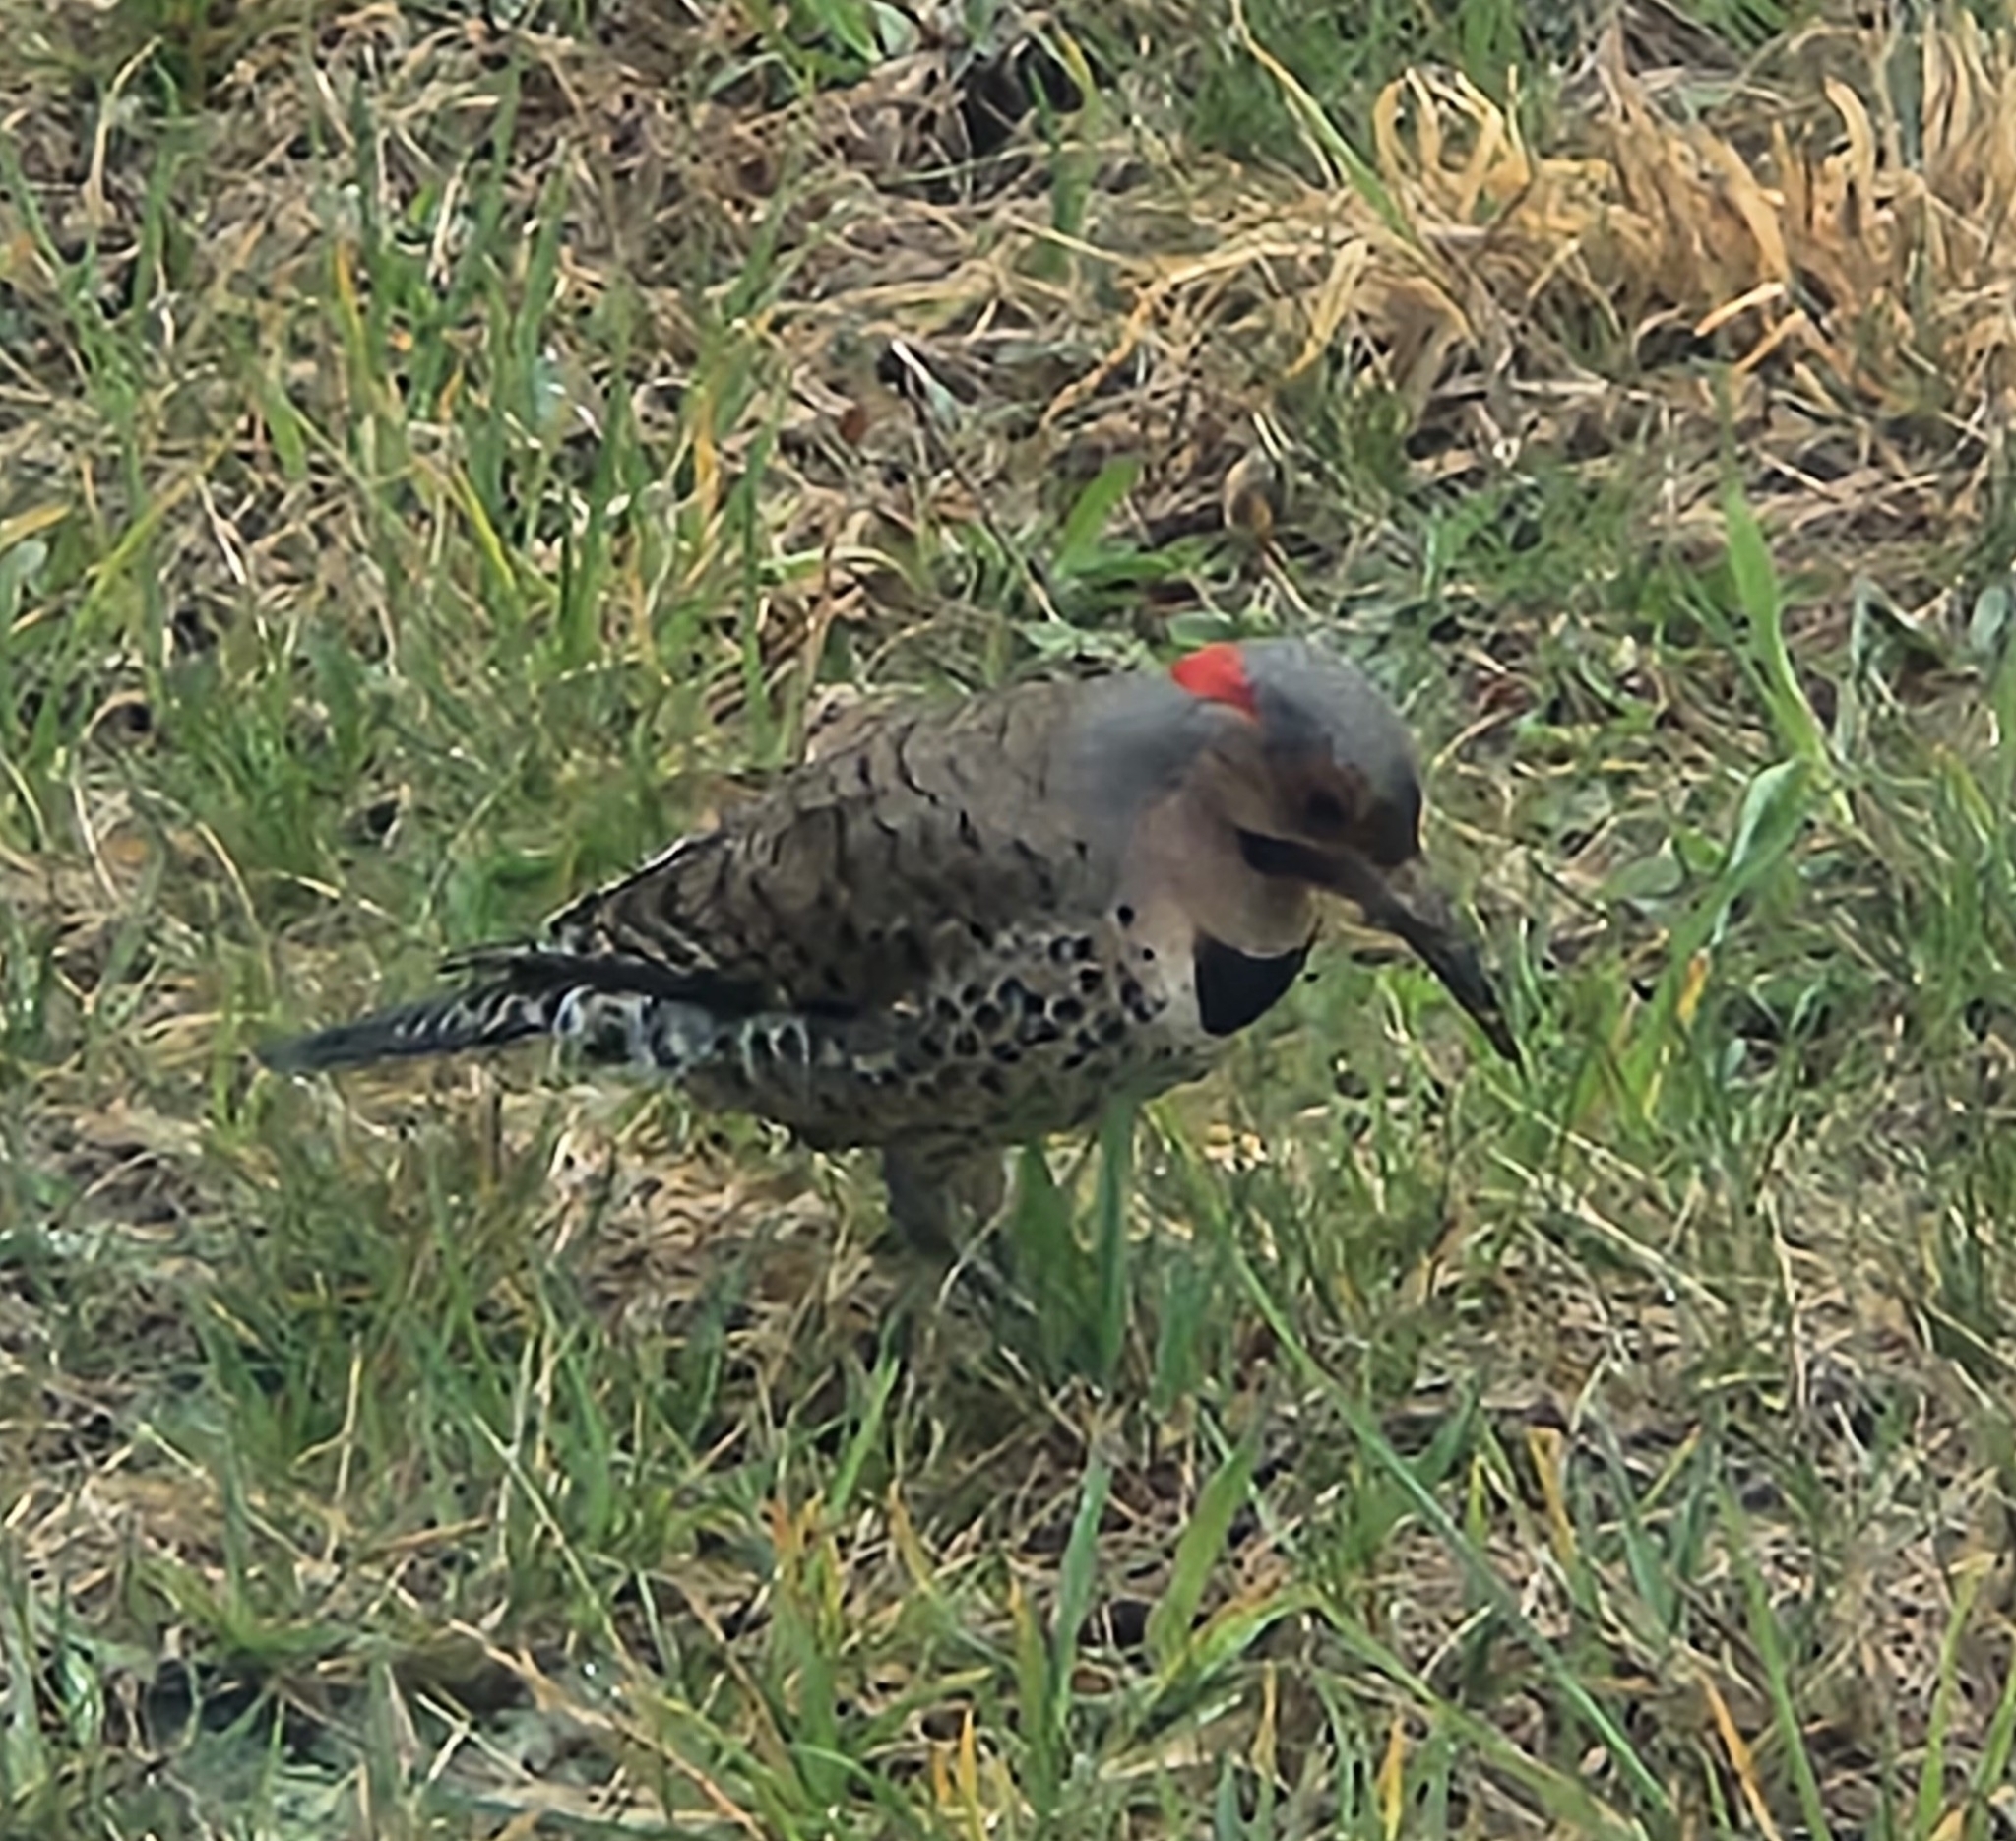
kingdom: Animalia
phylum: Chordata
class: Aves
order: Piciformes
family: Picidae
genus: Colaptes
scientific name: Colaptes auratus
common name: Northern flicker
